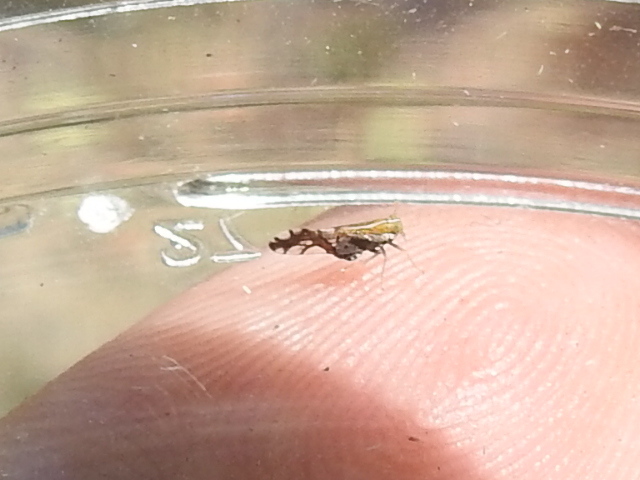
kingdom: Animalia
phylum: Arthropoda
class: Insecta
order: Hemiptera
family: Delphacidae
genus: Liburniella
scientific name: Liburniella ornata
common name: Ornate planthopper
